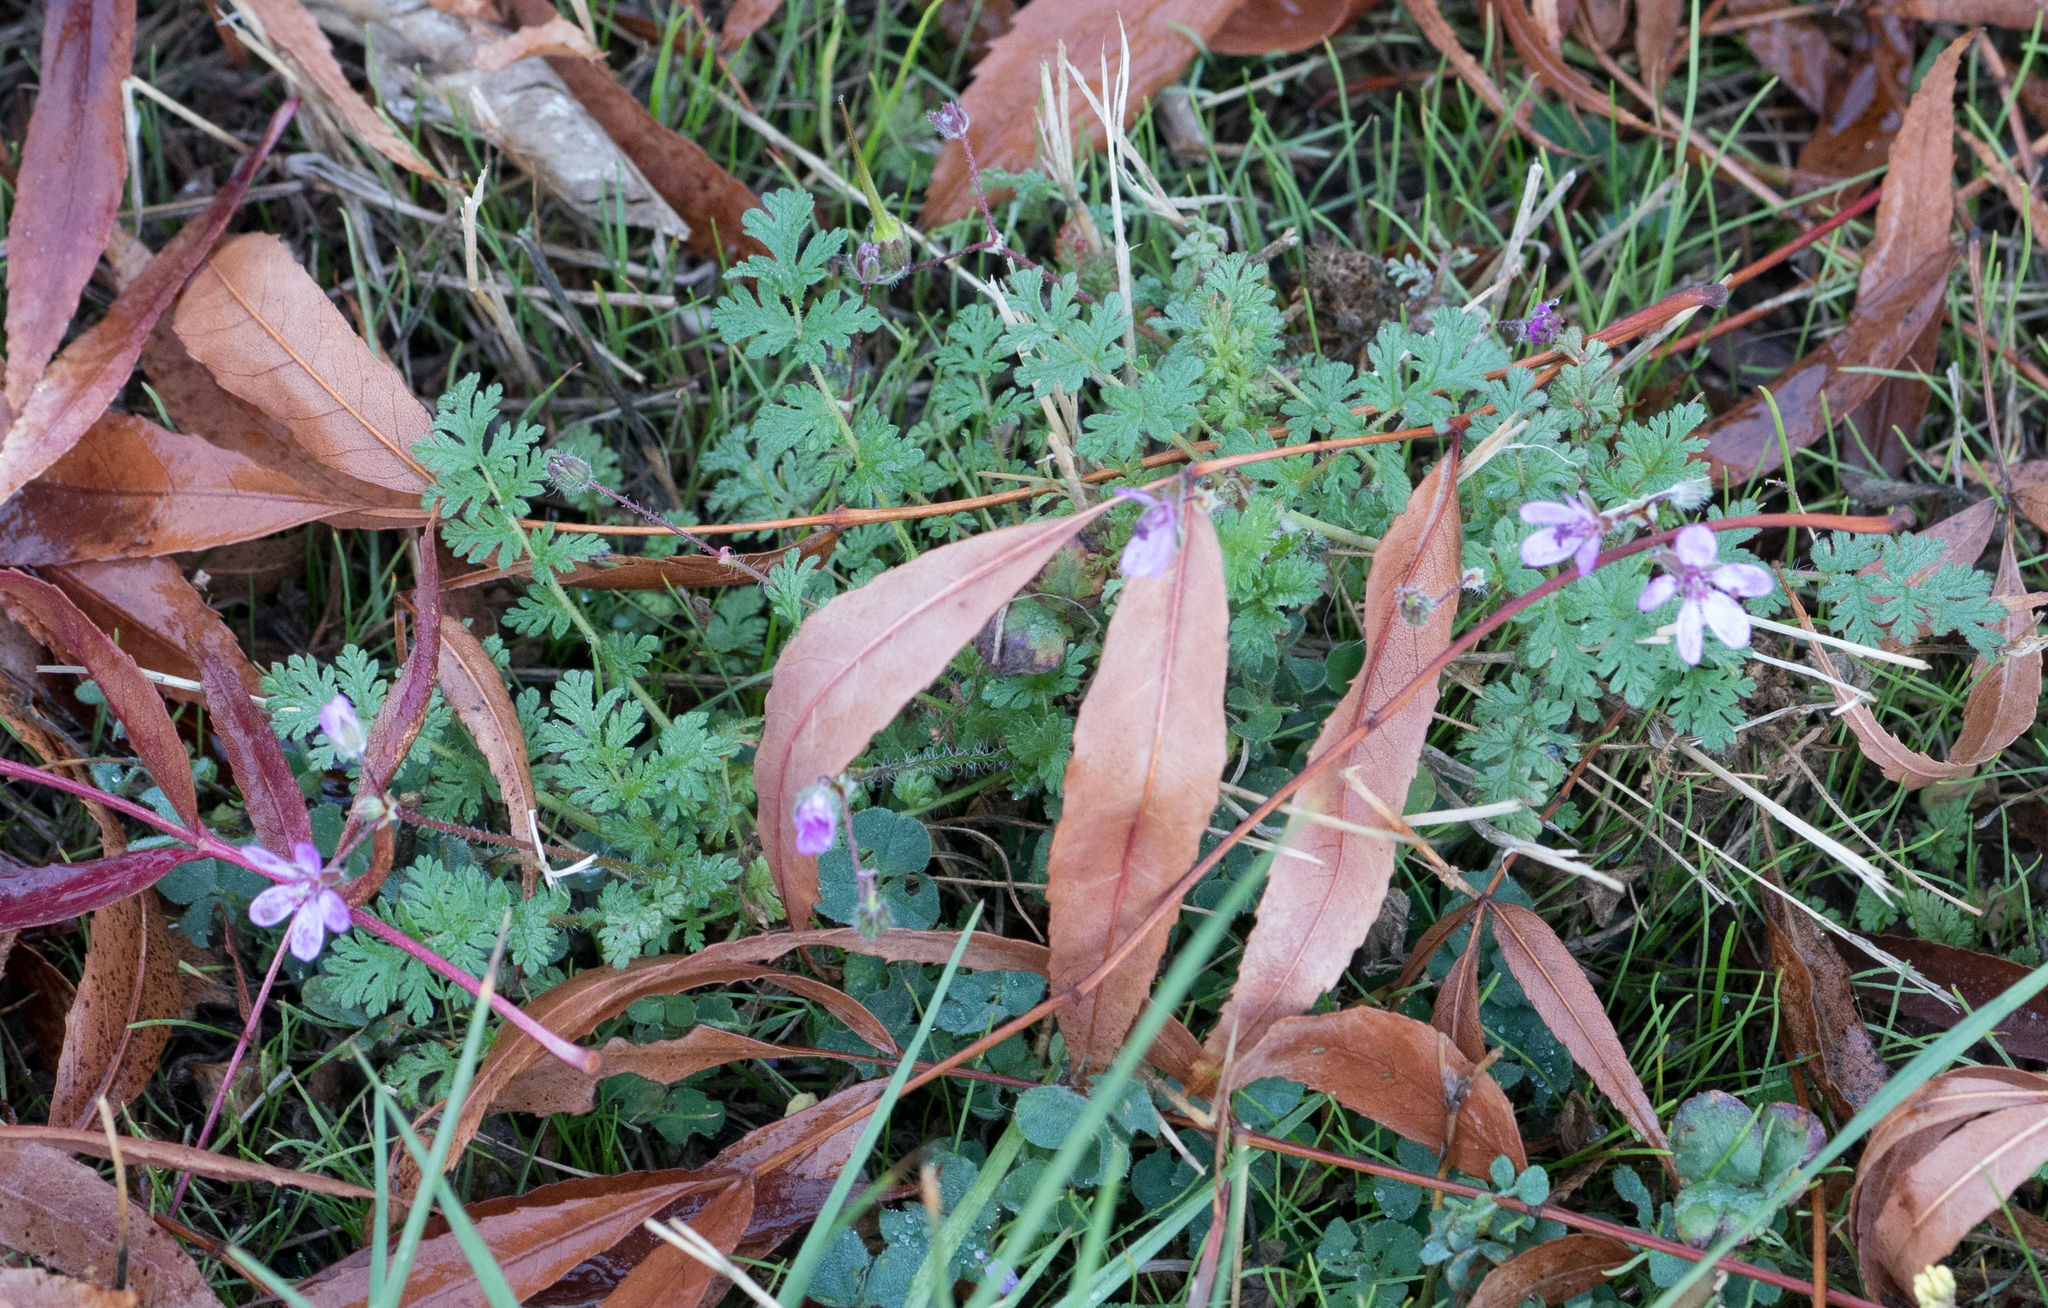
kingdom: Plantae
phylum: Tracheophyta
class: Magnoliopsida
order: Geraniales
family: Geraniaceae
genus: Erodium
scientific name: Erodium cicutarium
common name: Common stork's-bill
